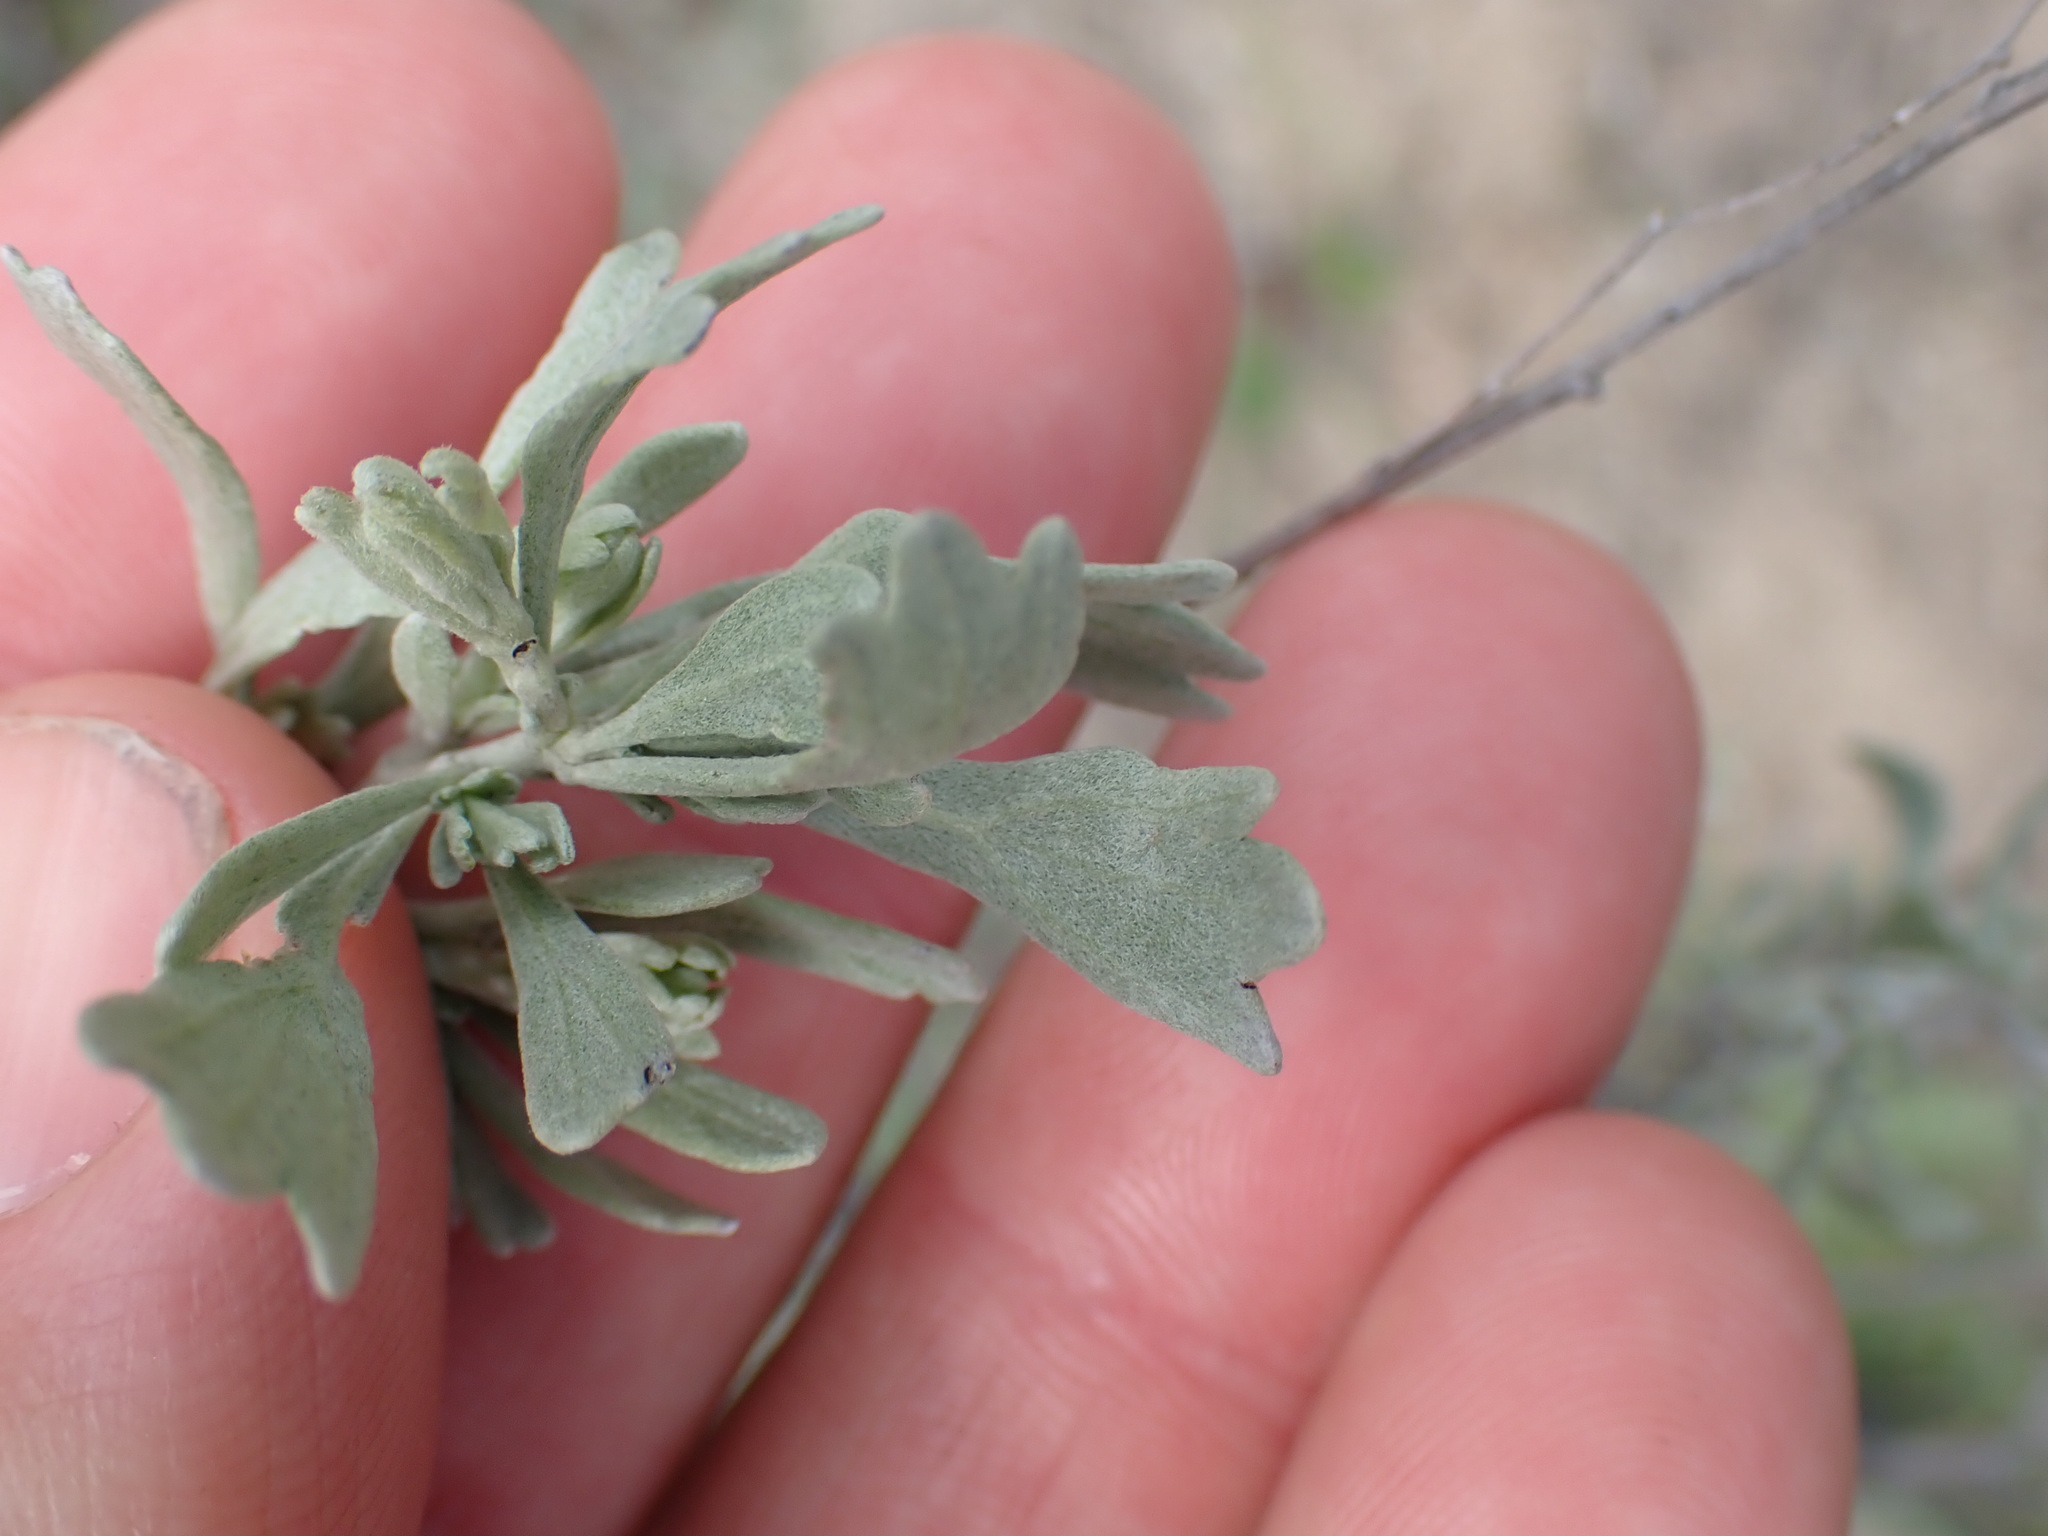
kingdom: Plantae
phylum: Tracheophyta
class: Magnoliopsida
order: Asterales
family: Asteraceae
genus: Artemisia
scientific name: Artemisia tridentata
